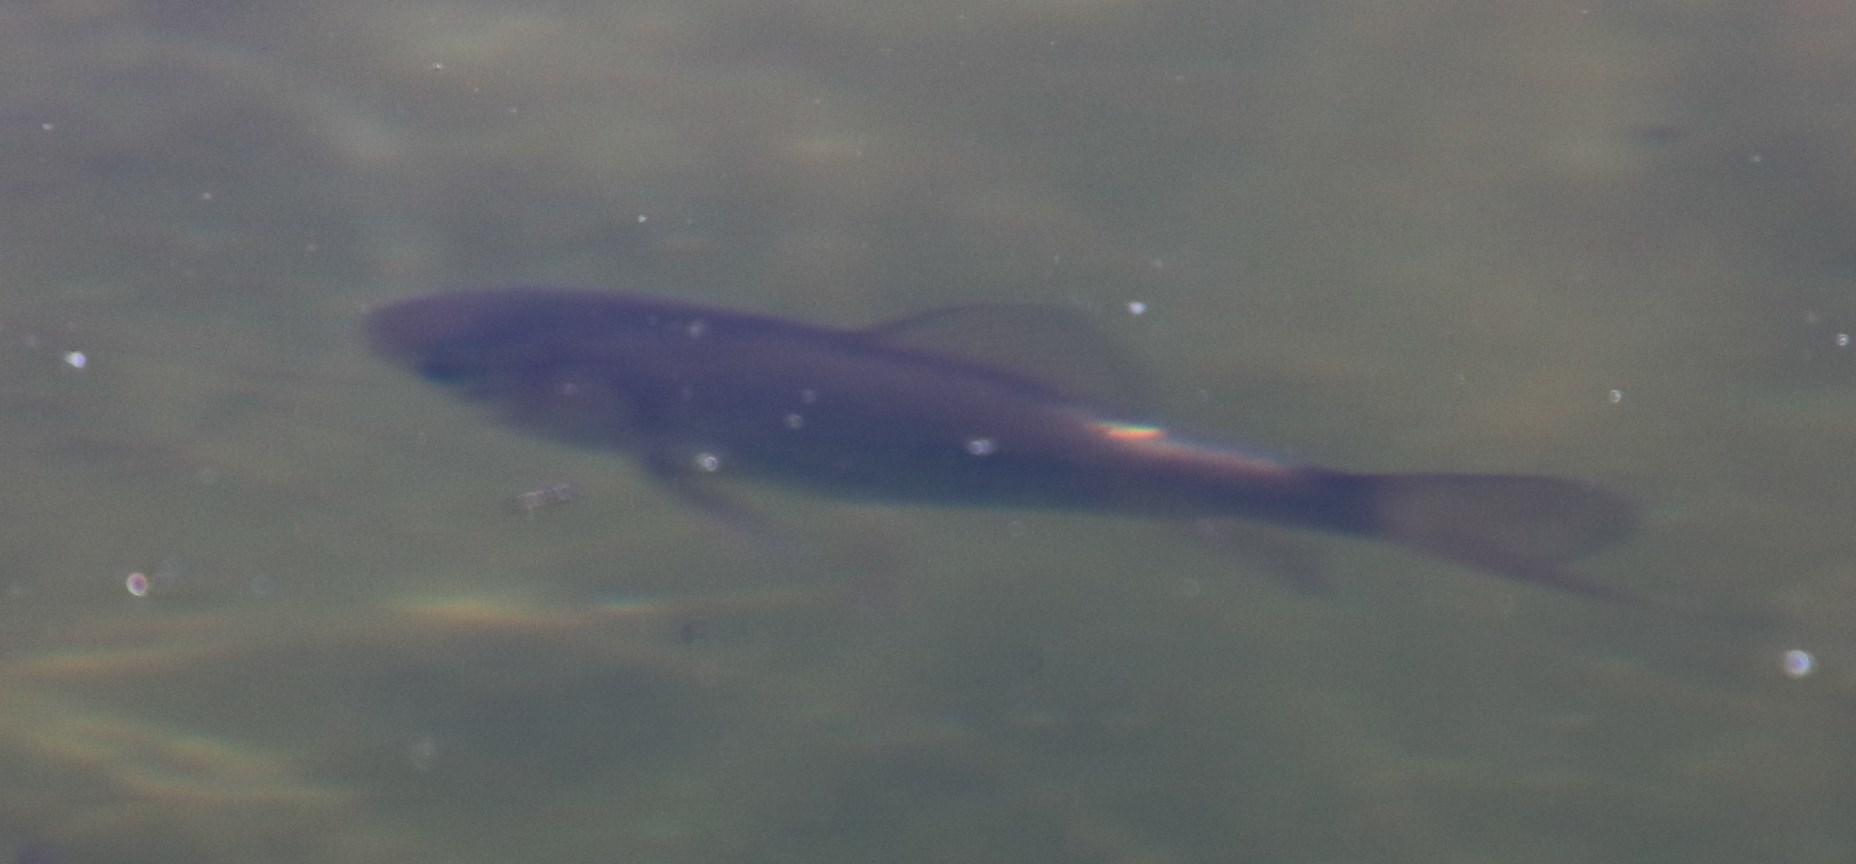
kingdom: Animalia
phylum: Chordata
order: Cypriniformes
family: Cyprinidae
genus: Carassius
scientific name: Carassius auratus
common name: Goldfish
